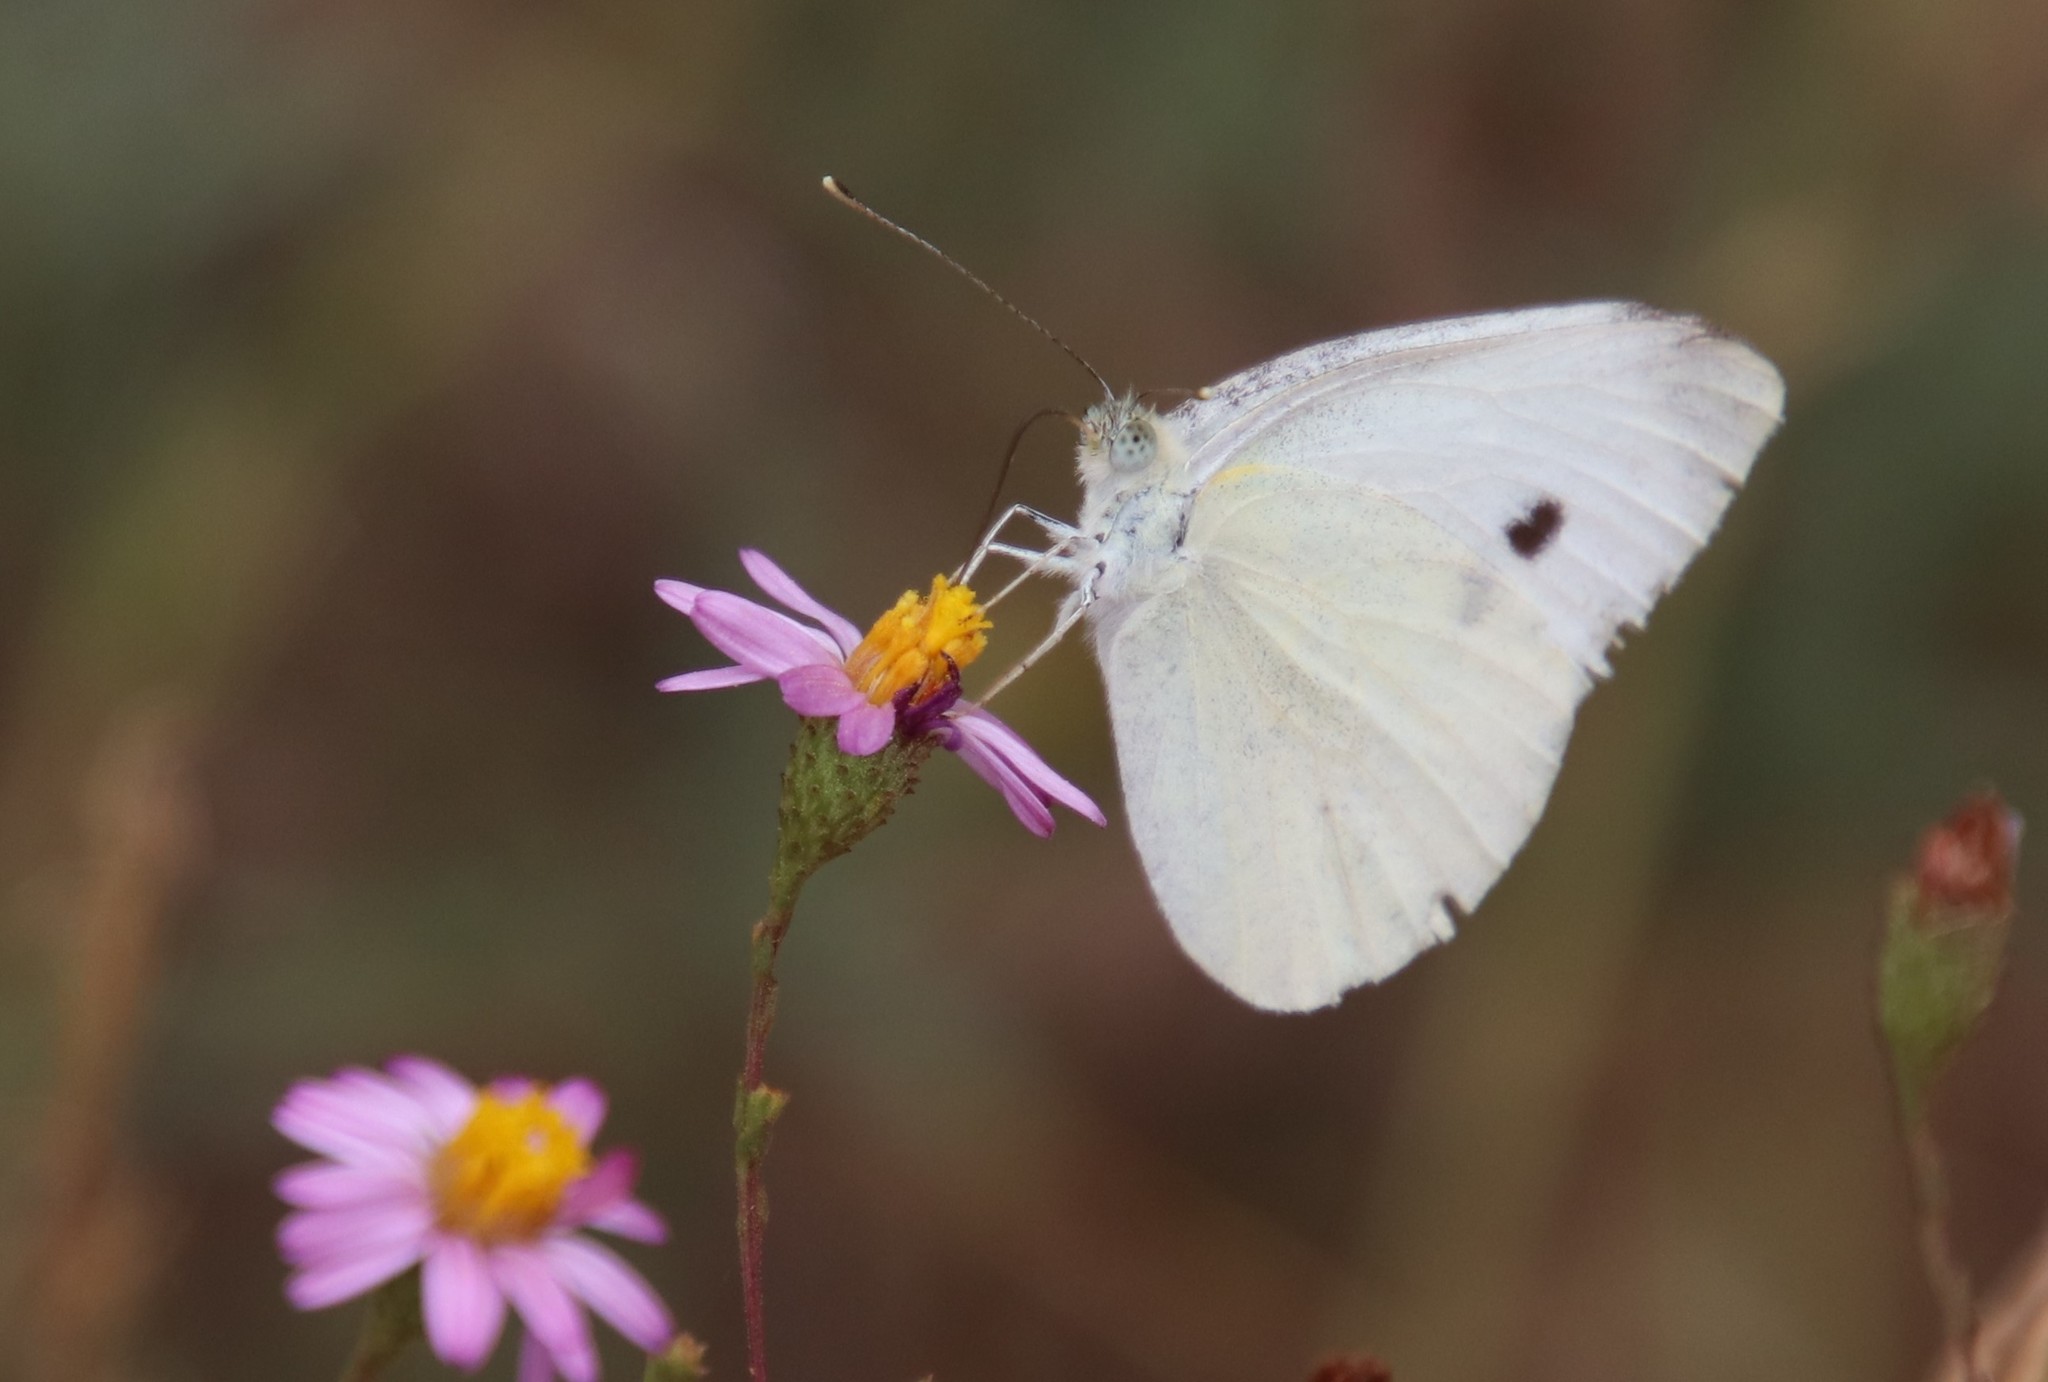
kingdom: Animalia
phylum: Arthropoda
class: Insecta
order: Lepidoptera
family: Pieridae
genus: Pieris
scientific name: Pieris rapae
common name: Small white
